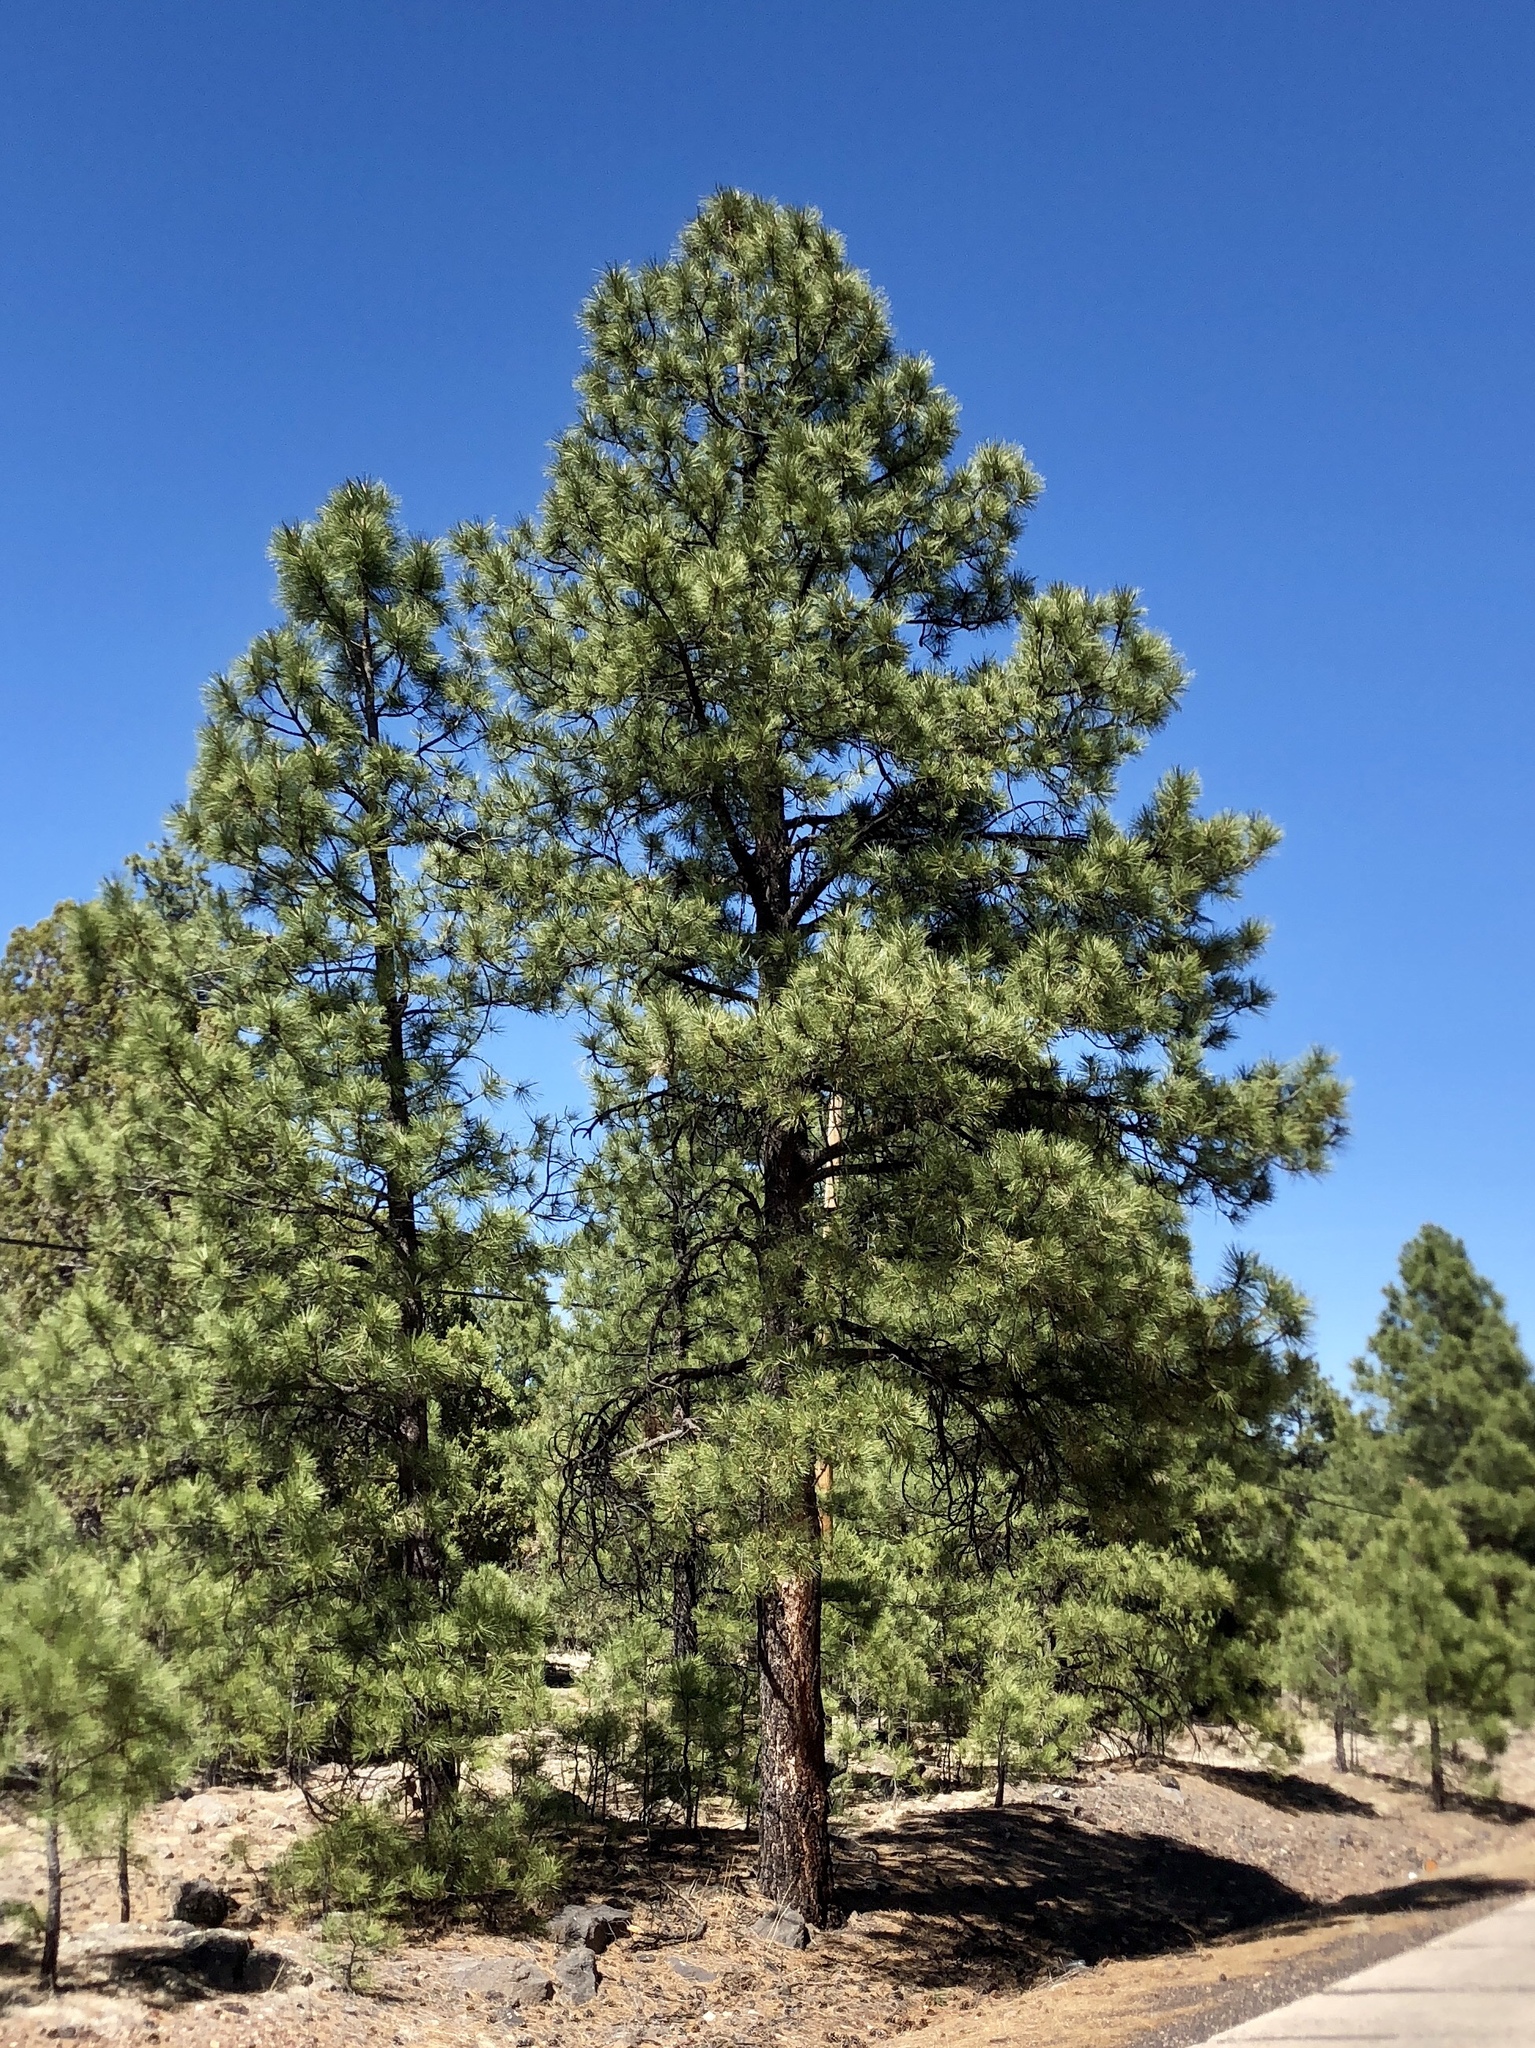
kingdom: Plantae
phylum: Tracheophyta
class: Pinopsida
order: Pinales
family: Pinaceae
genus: Pinus
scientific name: Pinus ponderosa
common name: Western yellow-pine
